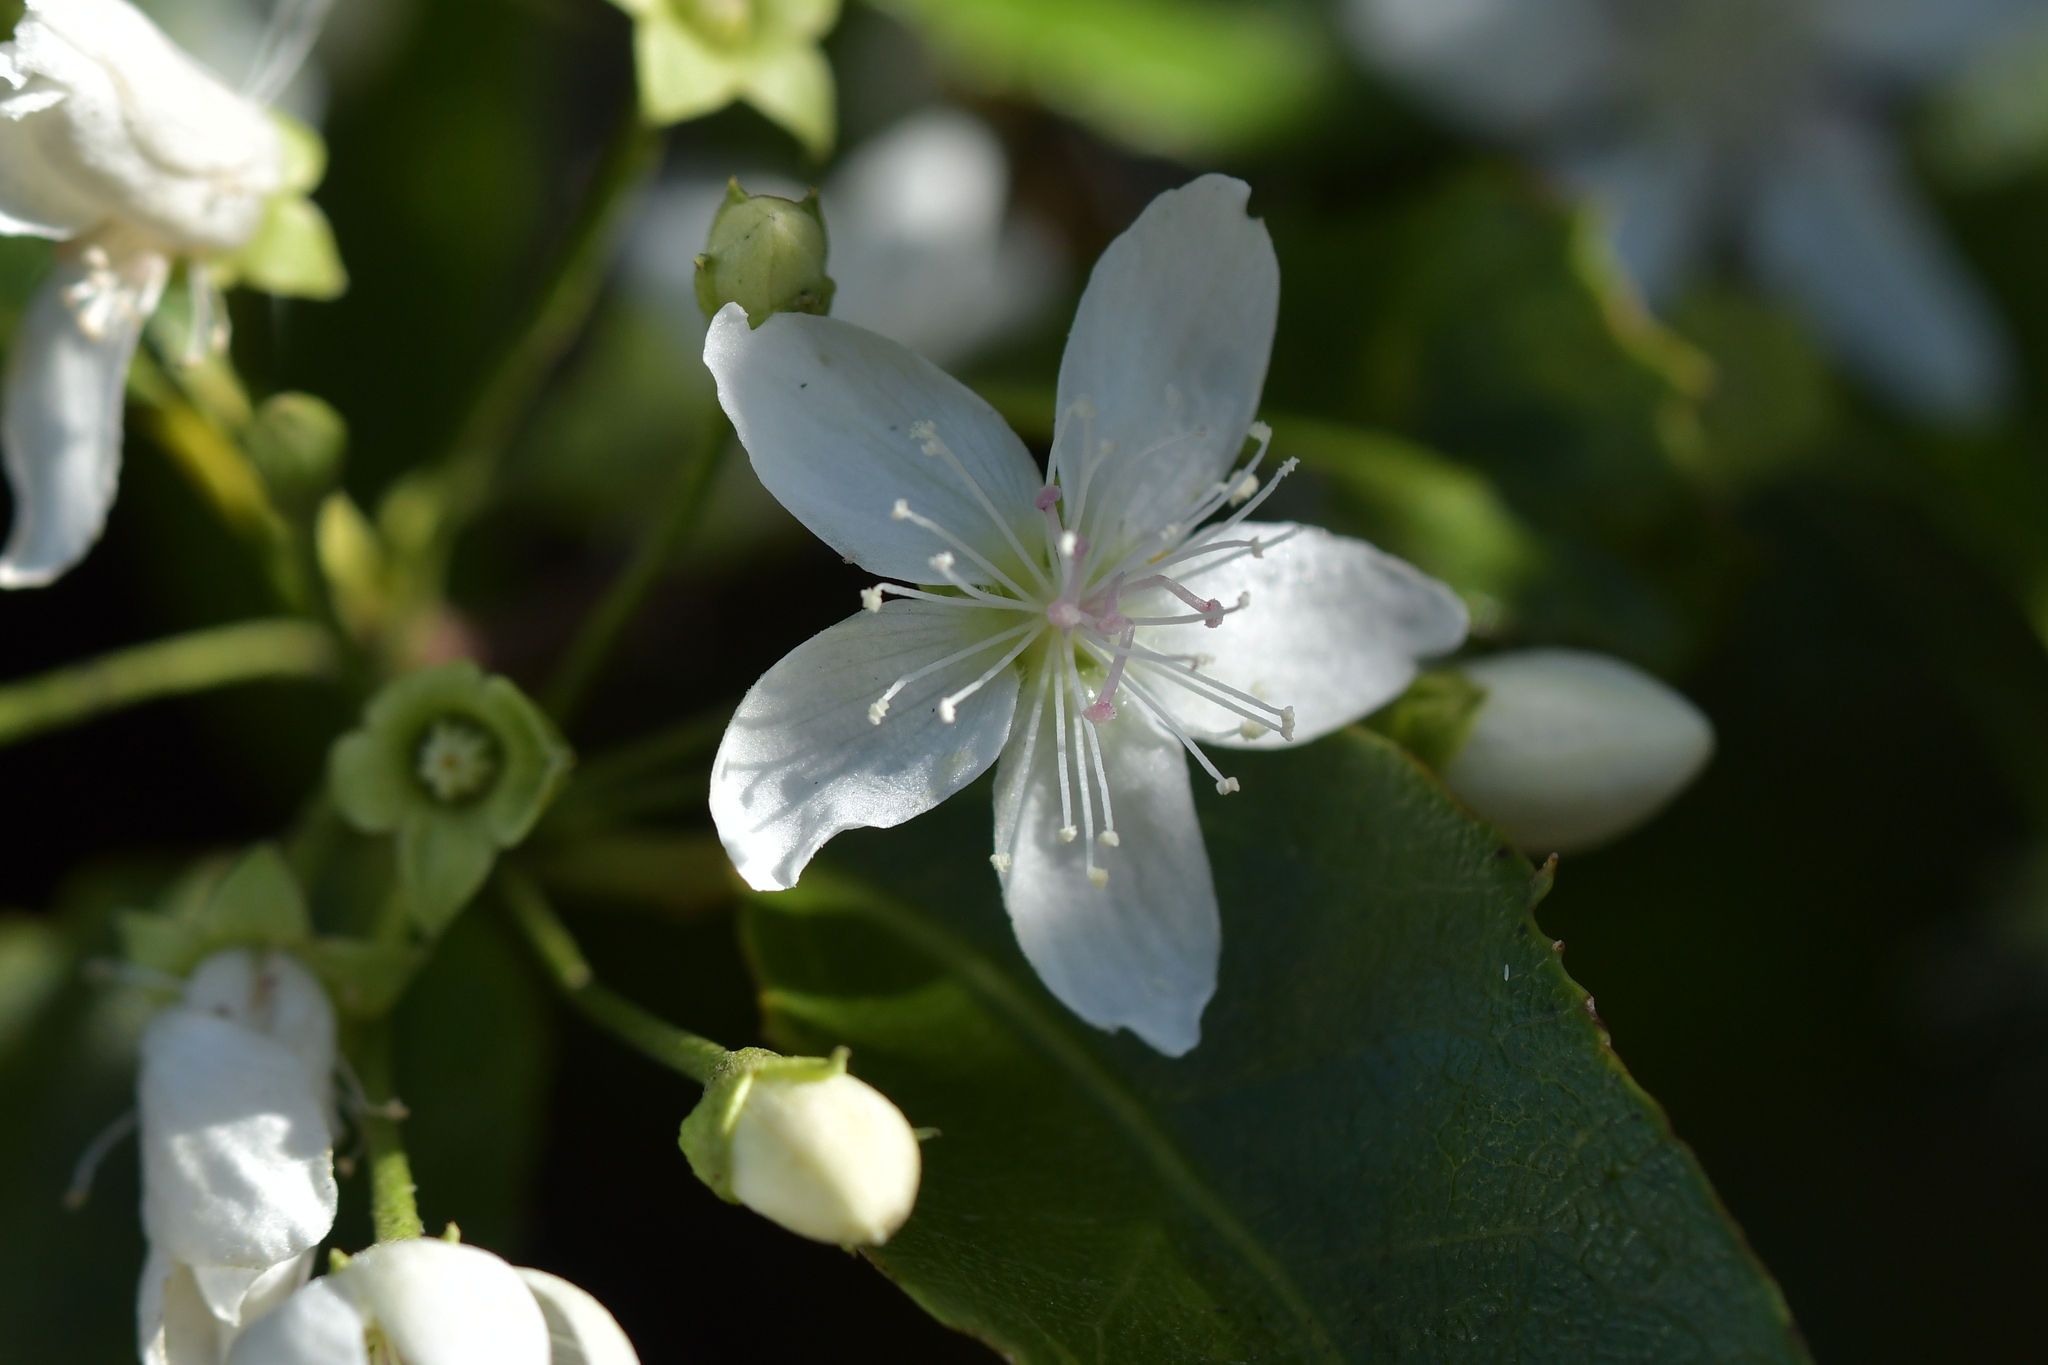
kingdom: Plantae
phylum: Tracheophyta
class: Magnoliopsida
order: Malvales
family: Malvaceae
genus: Hoheria
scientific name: Hoheria ovata
